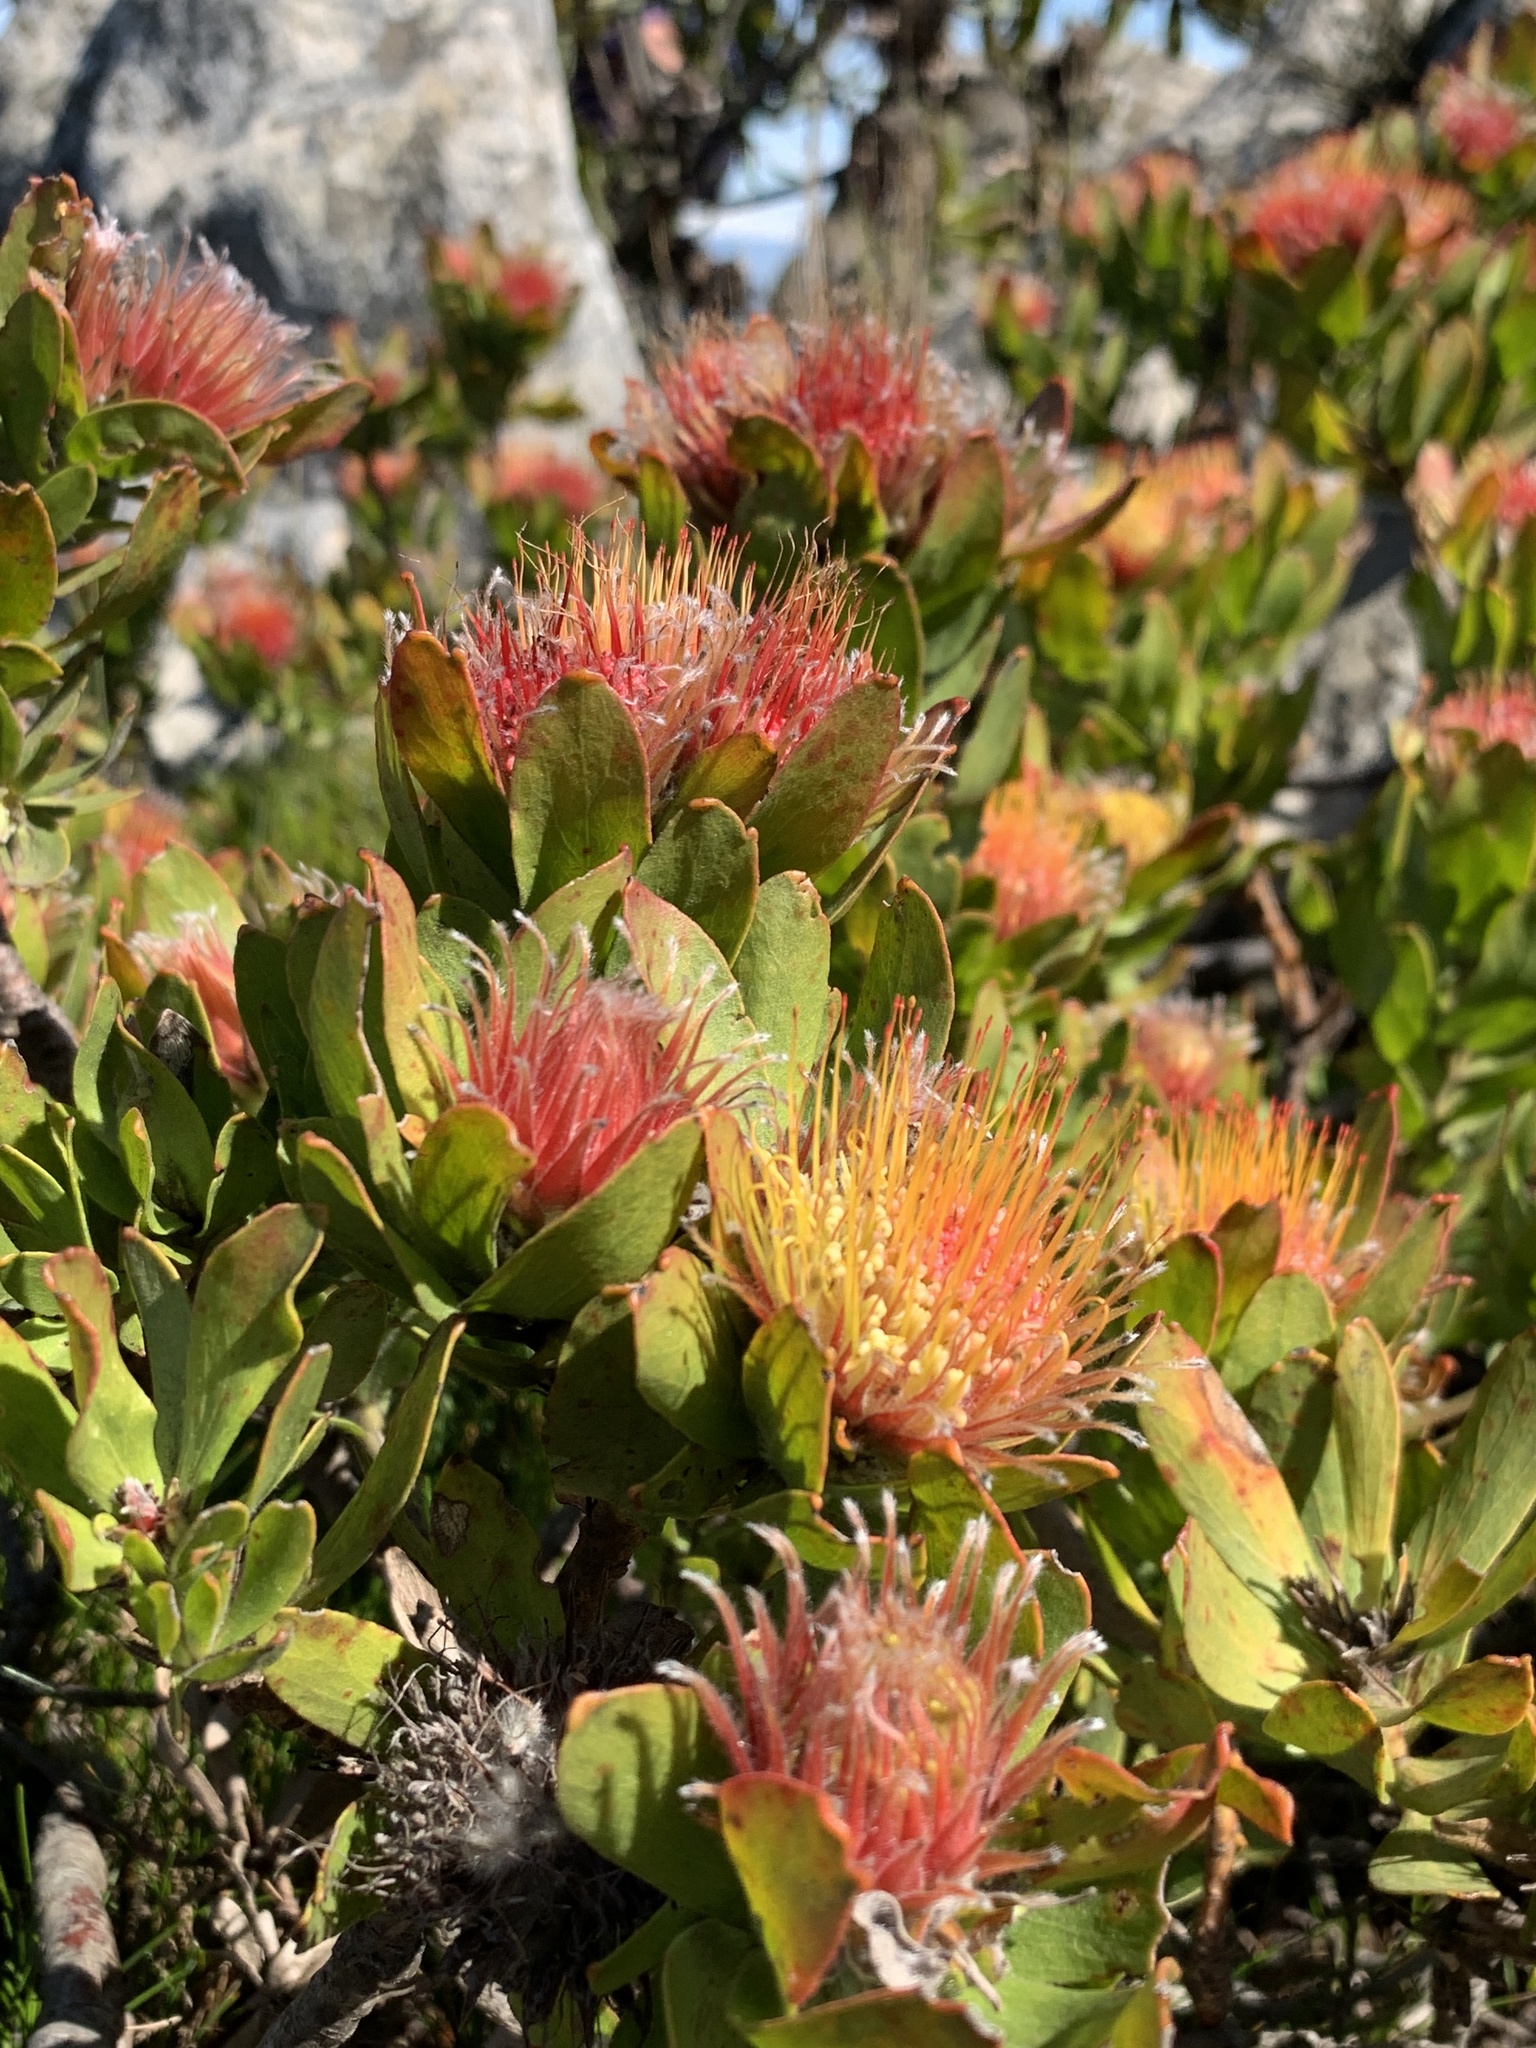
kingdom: Plantae
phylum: Tracheophyta
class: Magnoliopsida
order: Proteales
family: Proteaceae
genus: Leucospermum
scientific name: Leucospermum oleifolium
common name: Matches
